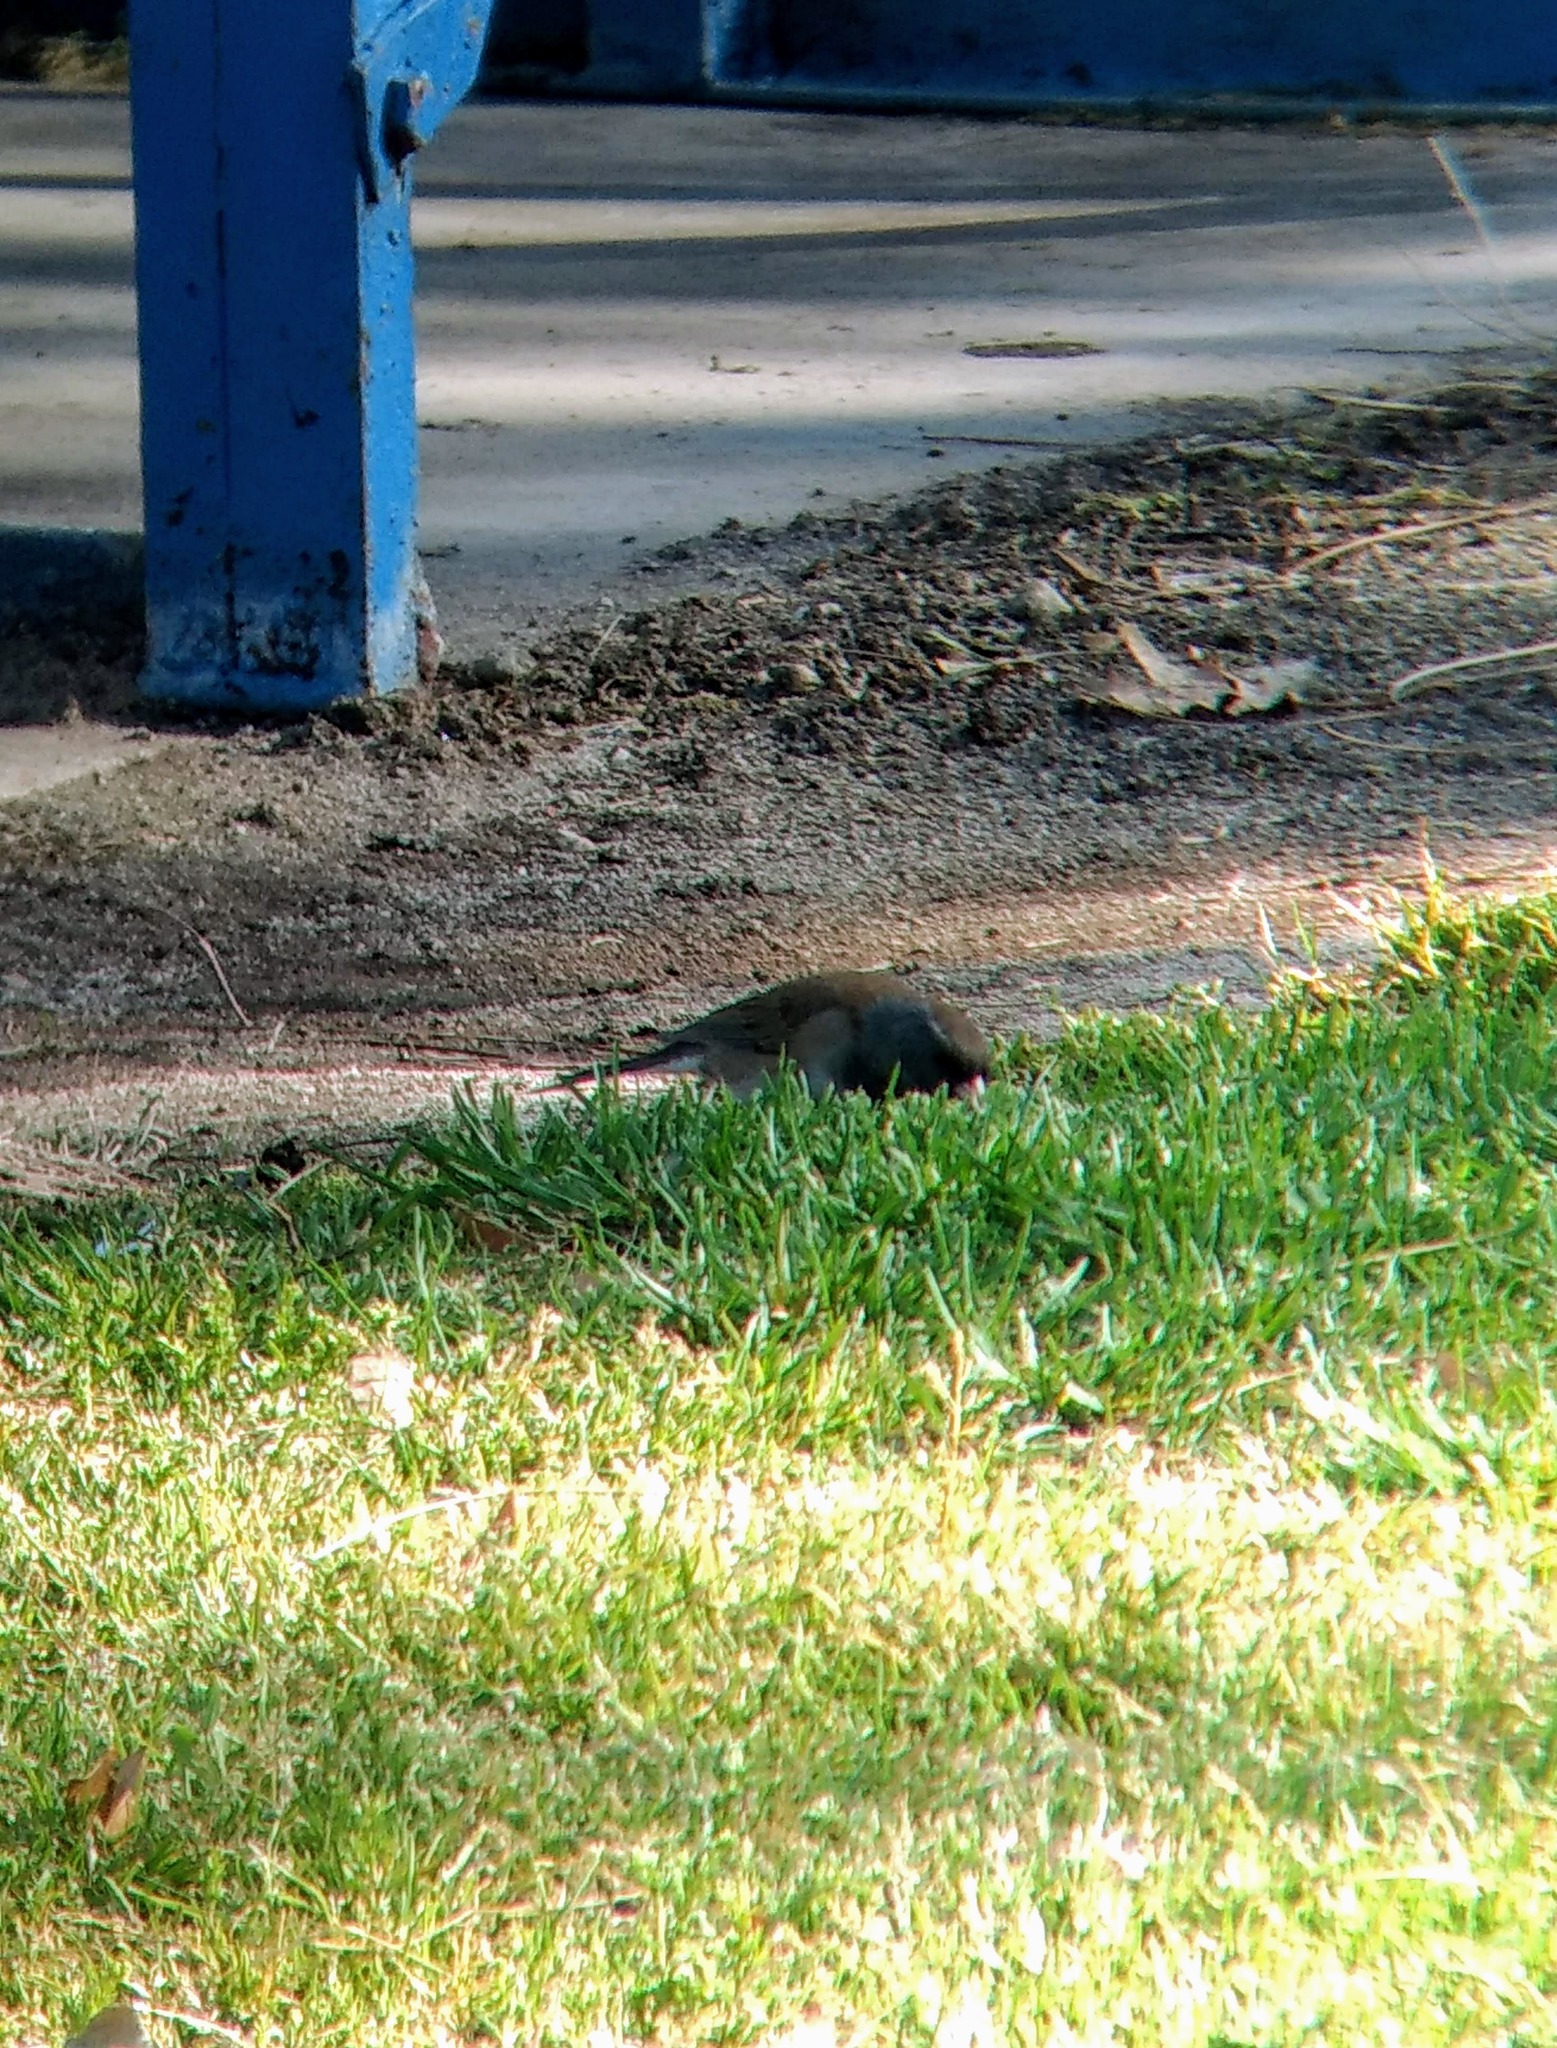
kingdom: Animalia
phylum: Chordata
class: Aves
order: Passeriformes
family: Passerellidae
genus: Junco
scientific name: Junco hyemalis
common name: Dark-eyed junco
